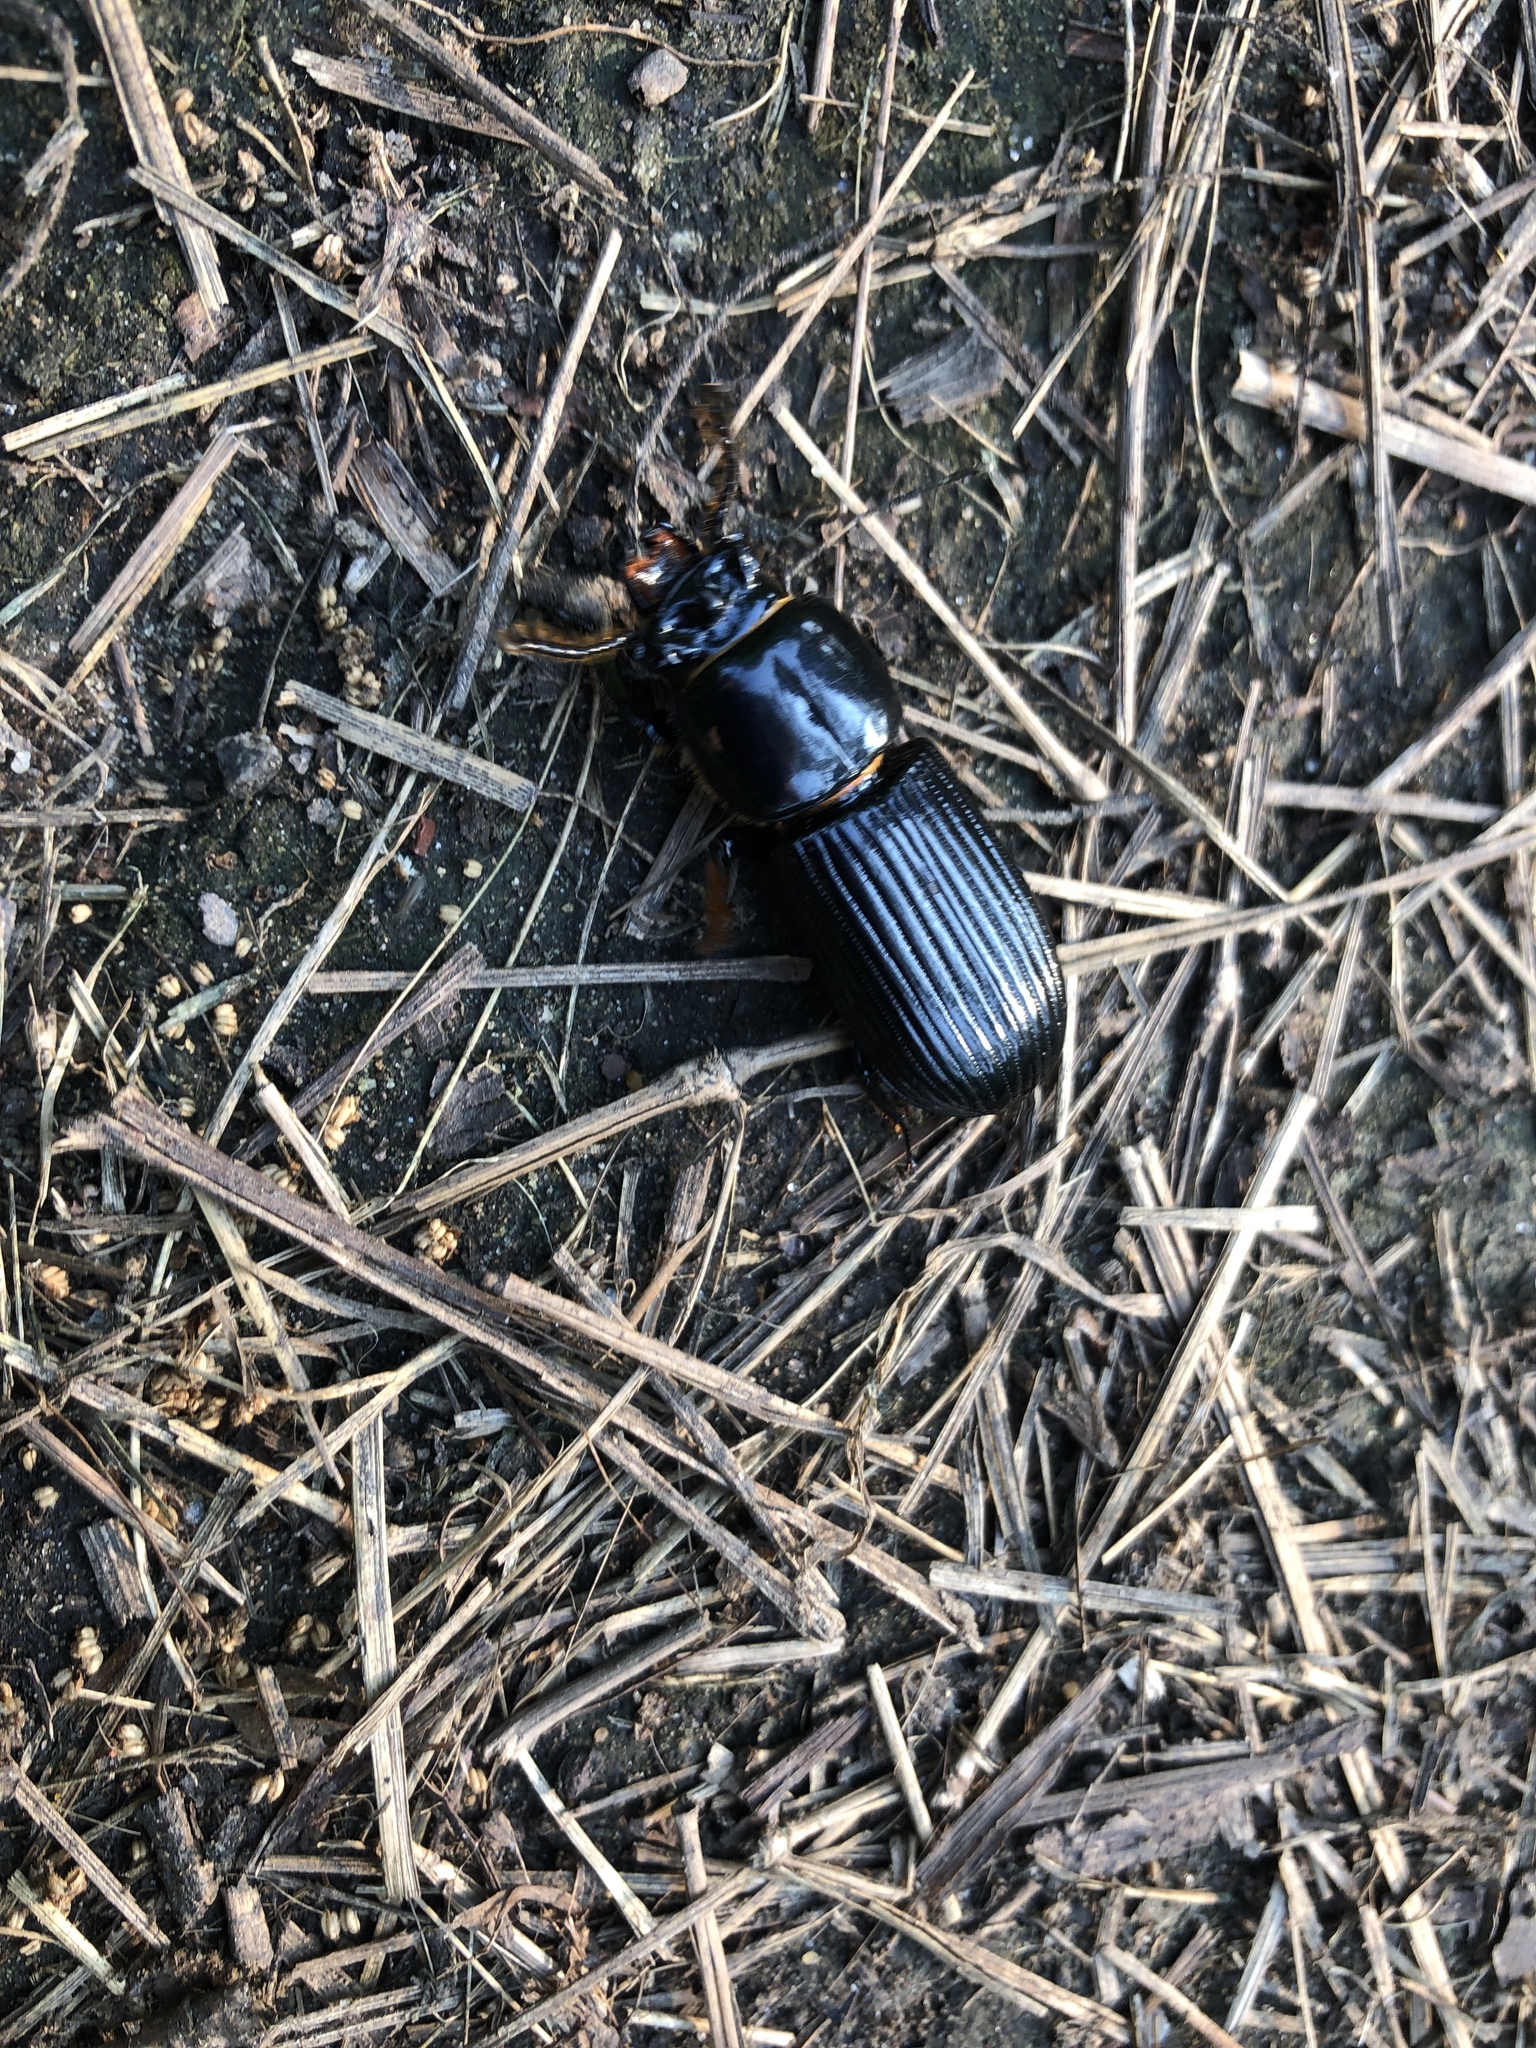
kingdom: Animalia
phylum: Arthropoda
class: Insecta
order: Coleoptera
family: Passalidae
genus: Odontotaenius
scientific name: Odontotaenius disjunctus
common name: Patent leather beetle
